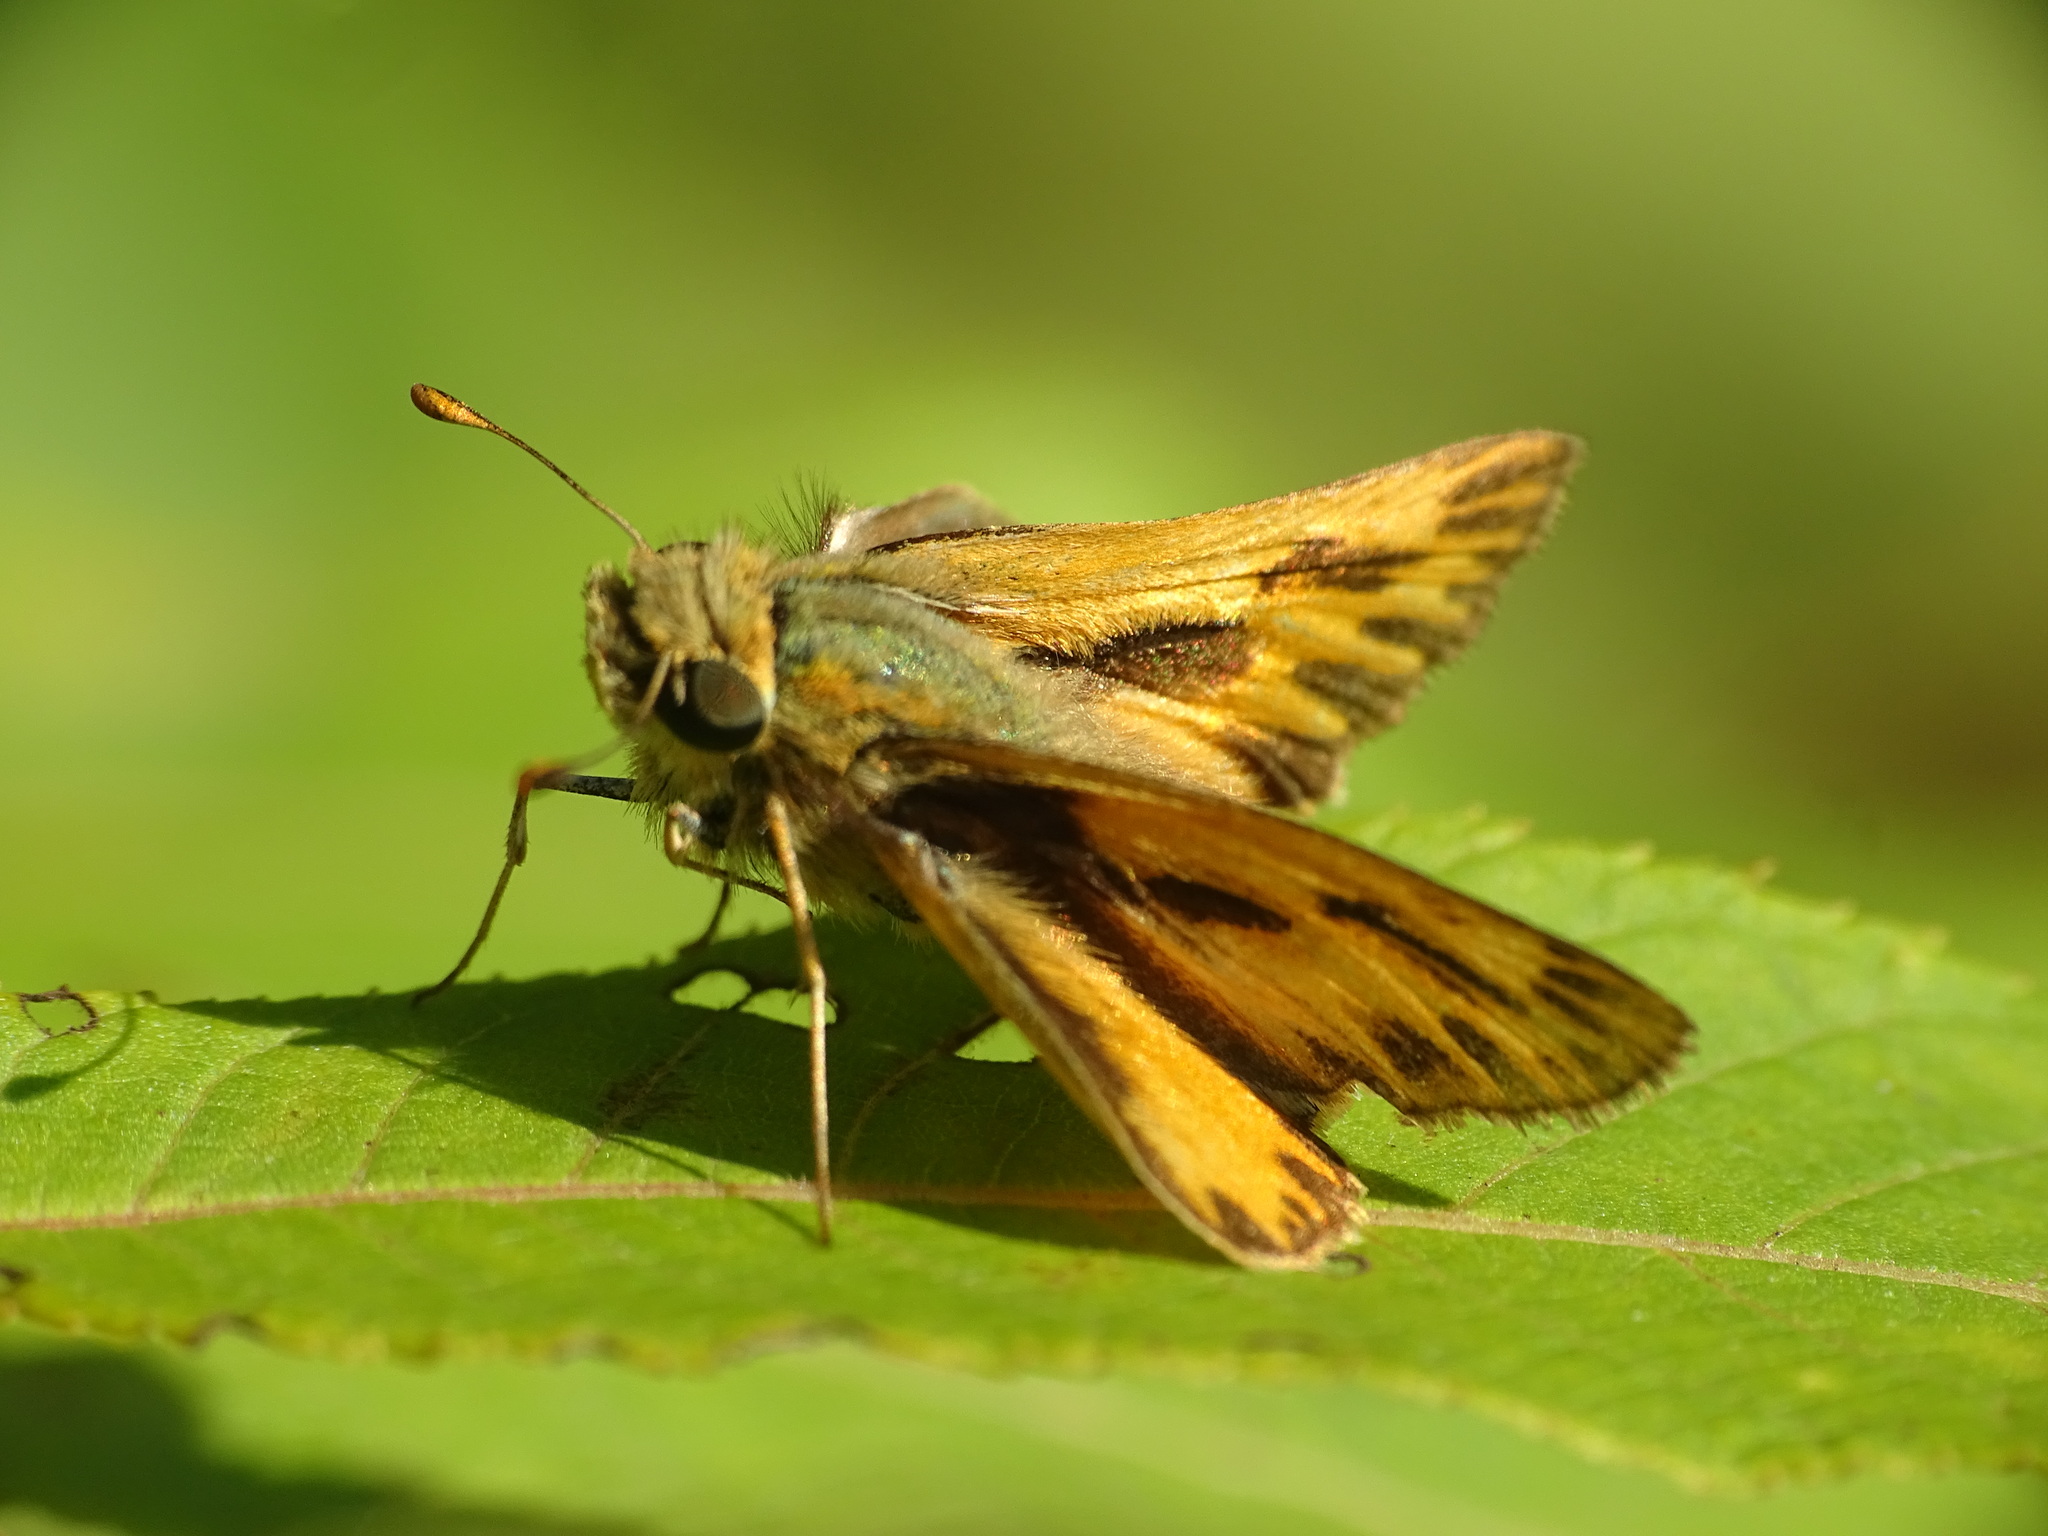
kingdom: Animalia
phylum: Arthropoda
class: Insecta
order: Lepidoptera
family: Hesperiidae
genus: Hylephila
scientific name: Hylephila phyleus
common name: Fiery skipper
